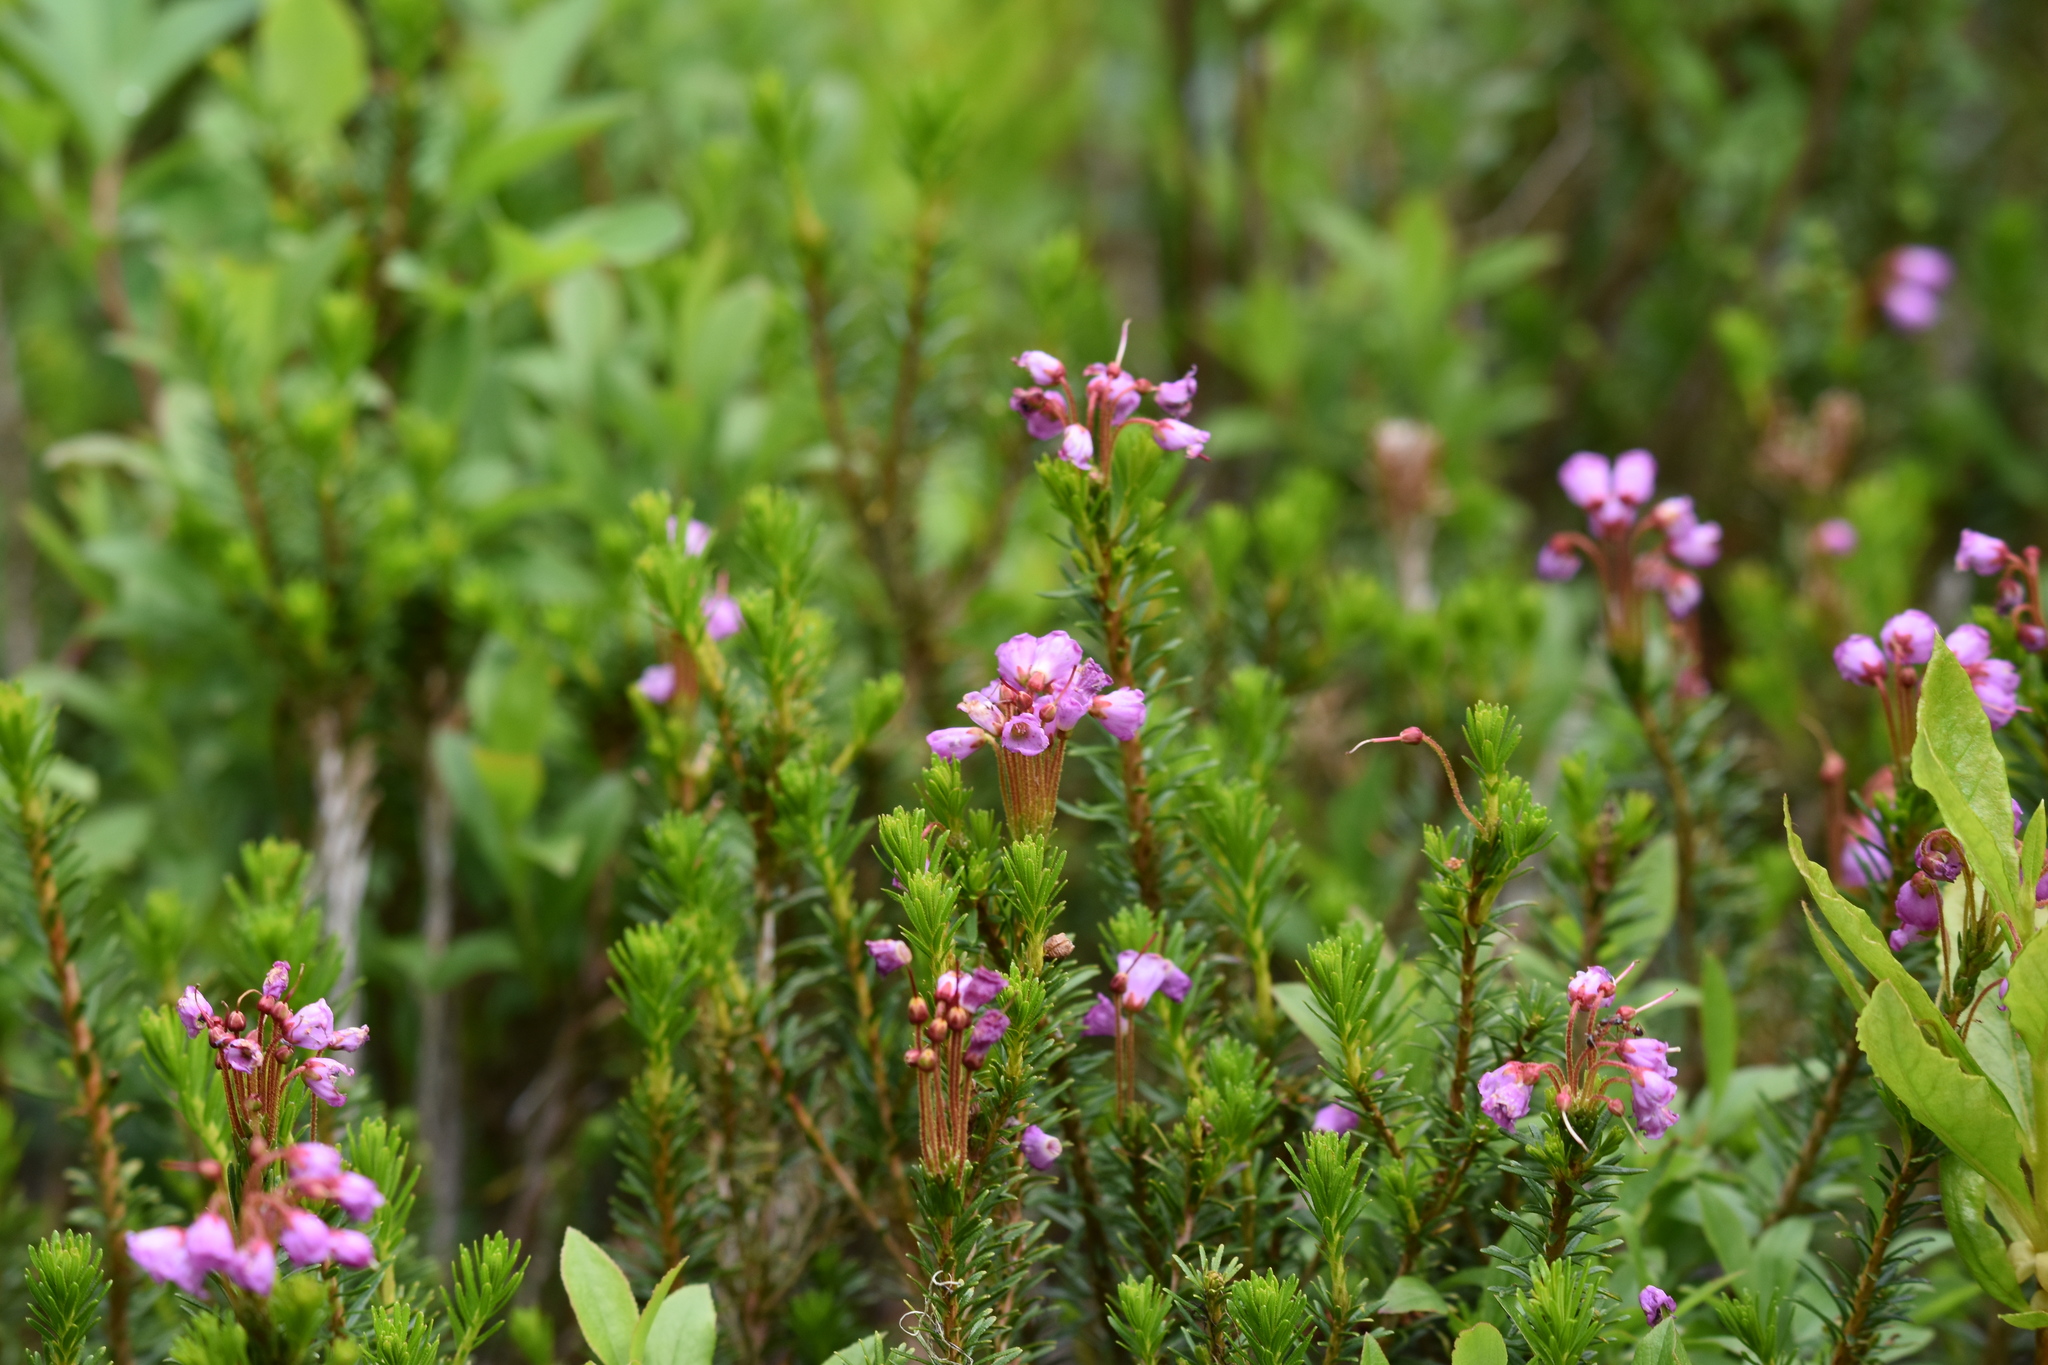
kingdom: Plantae
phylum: Tracheophyta
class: Magnoliopsida
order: Ericales
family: Ericaceae
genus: Phyllodoce
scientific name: Phyllodoce empetriformis
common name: Pink mountain heather
